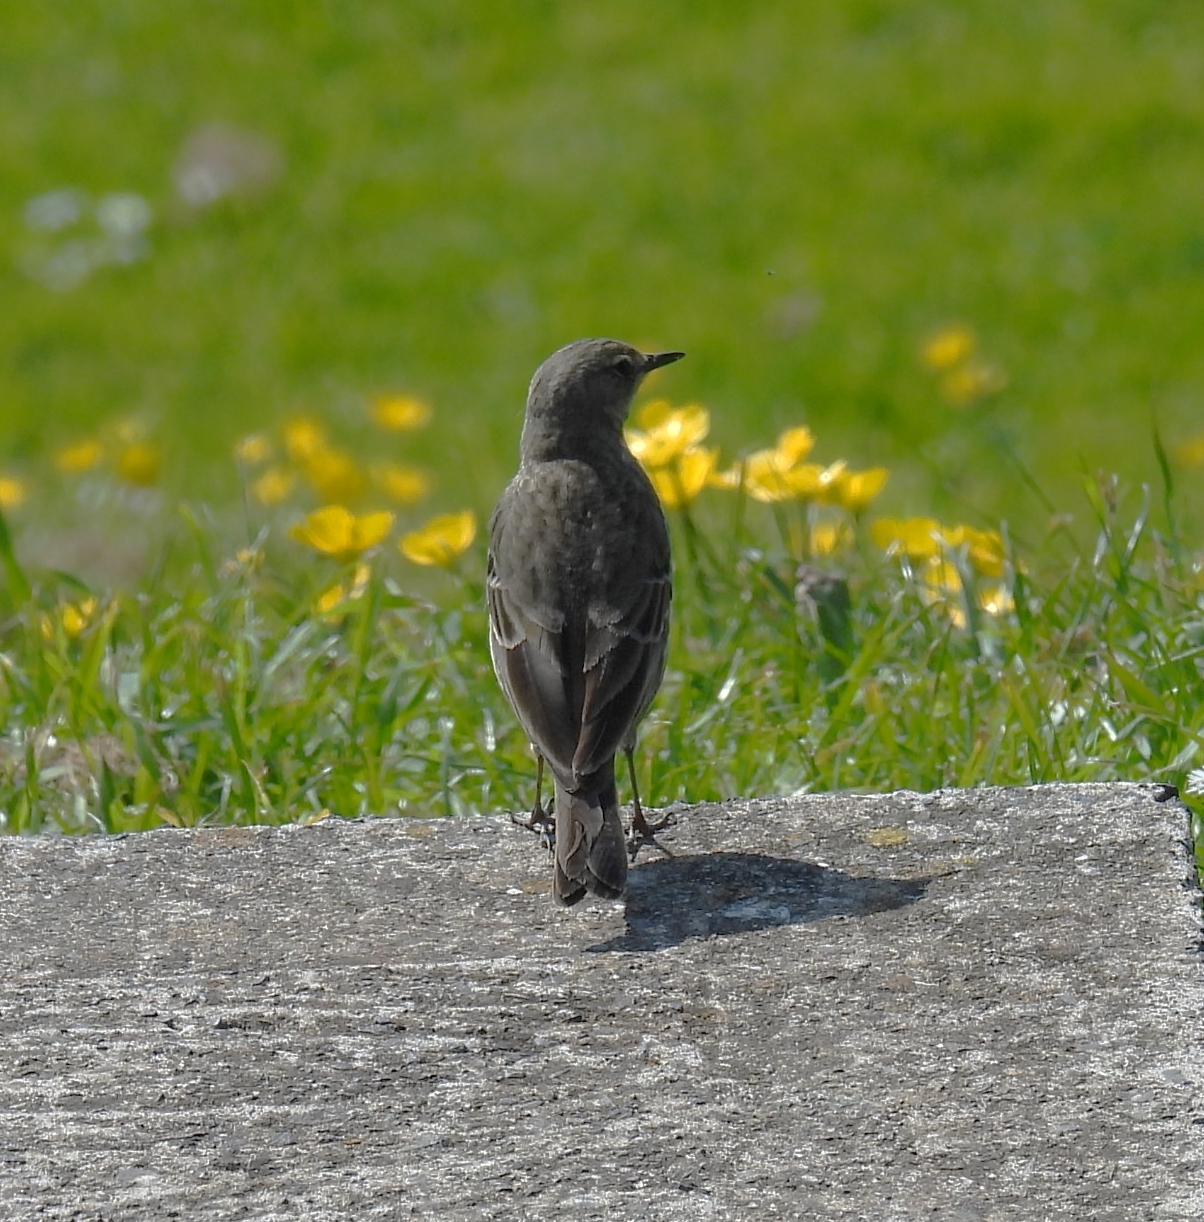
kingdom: Animalia
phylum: Chordata
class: Aves
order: Passeriformes
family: Motacillidae
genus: Anthus
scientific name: Anthus petrosus
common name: Eurasian rock pipit
